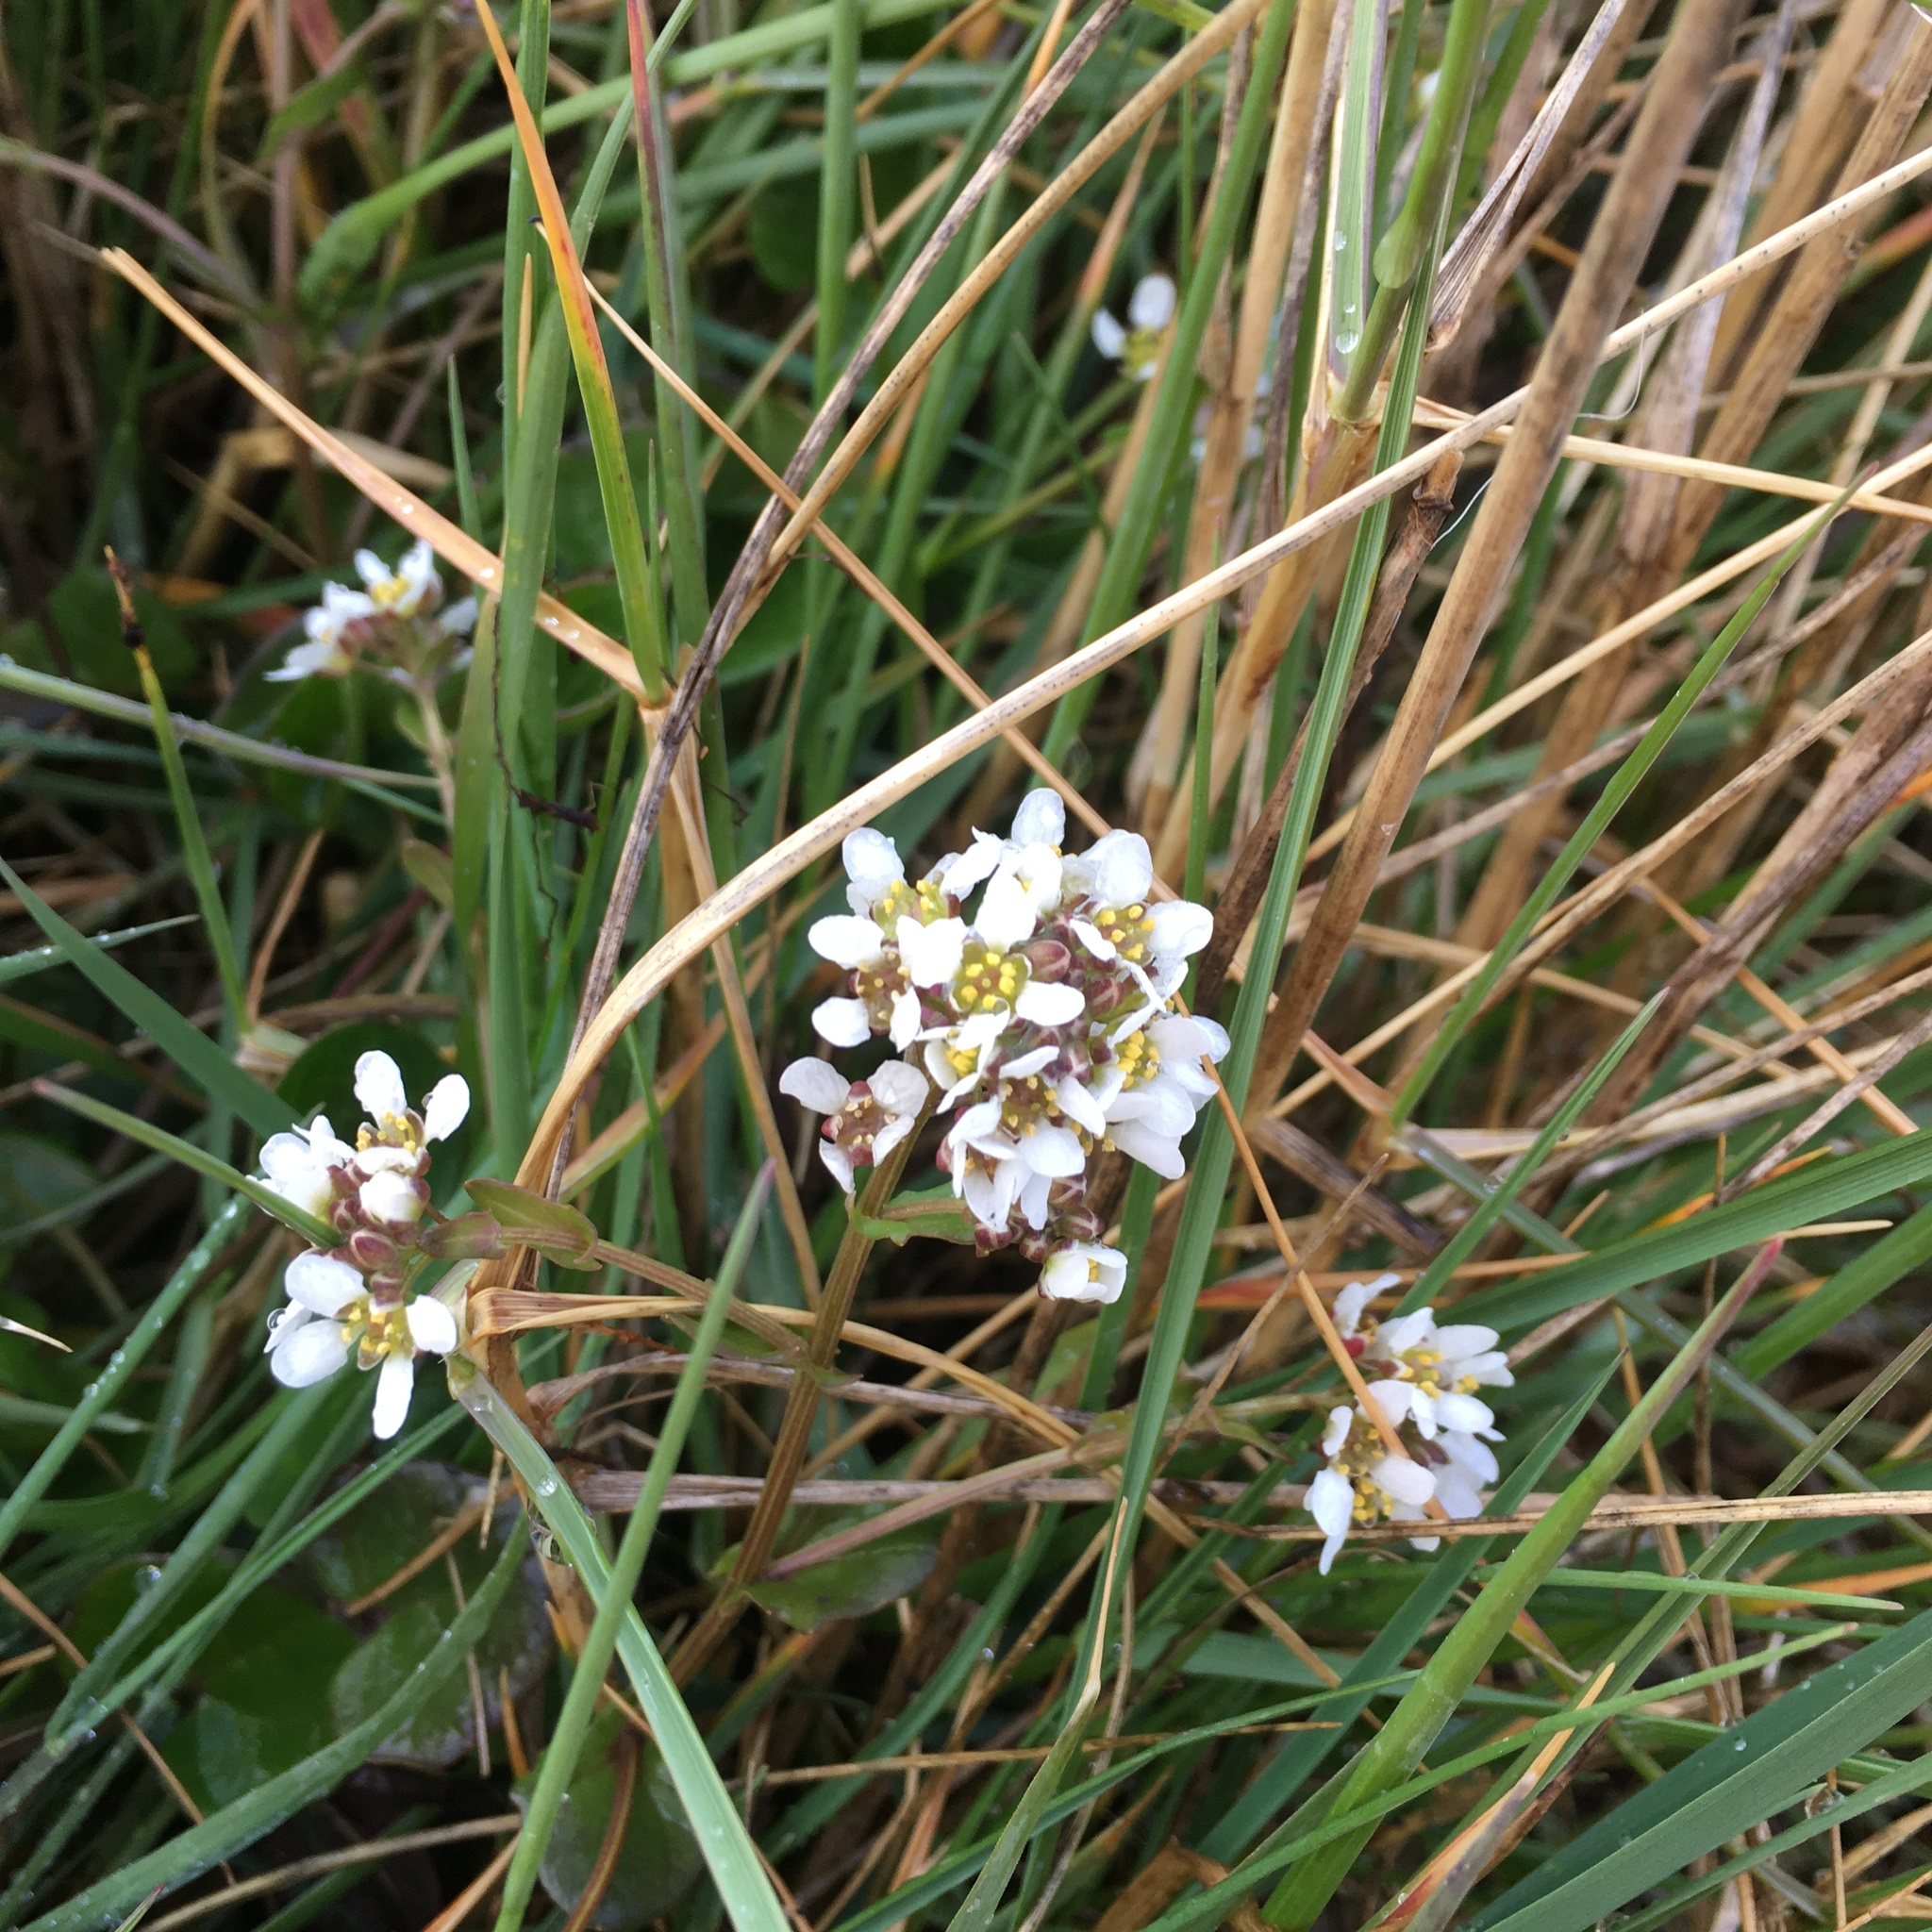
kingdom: Plantae
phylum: Tracheophyta
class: Magnoliopsida
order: Brassicales
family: Brassicaceae
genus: Cochlearia
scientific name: Cochlearia officinalis
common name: Scurvy-grass
